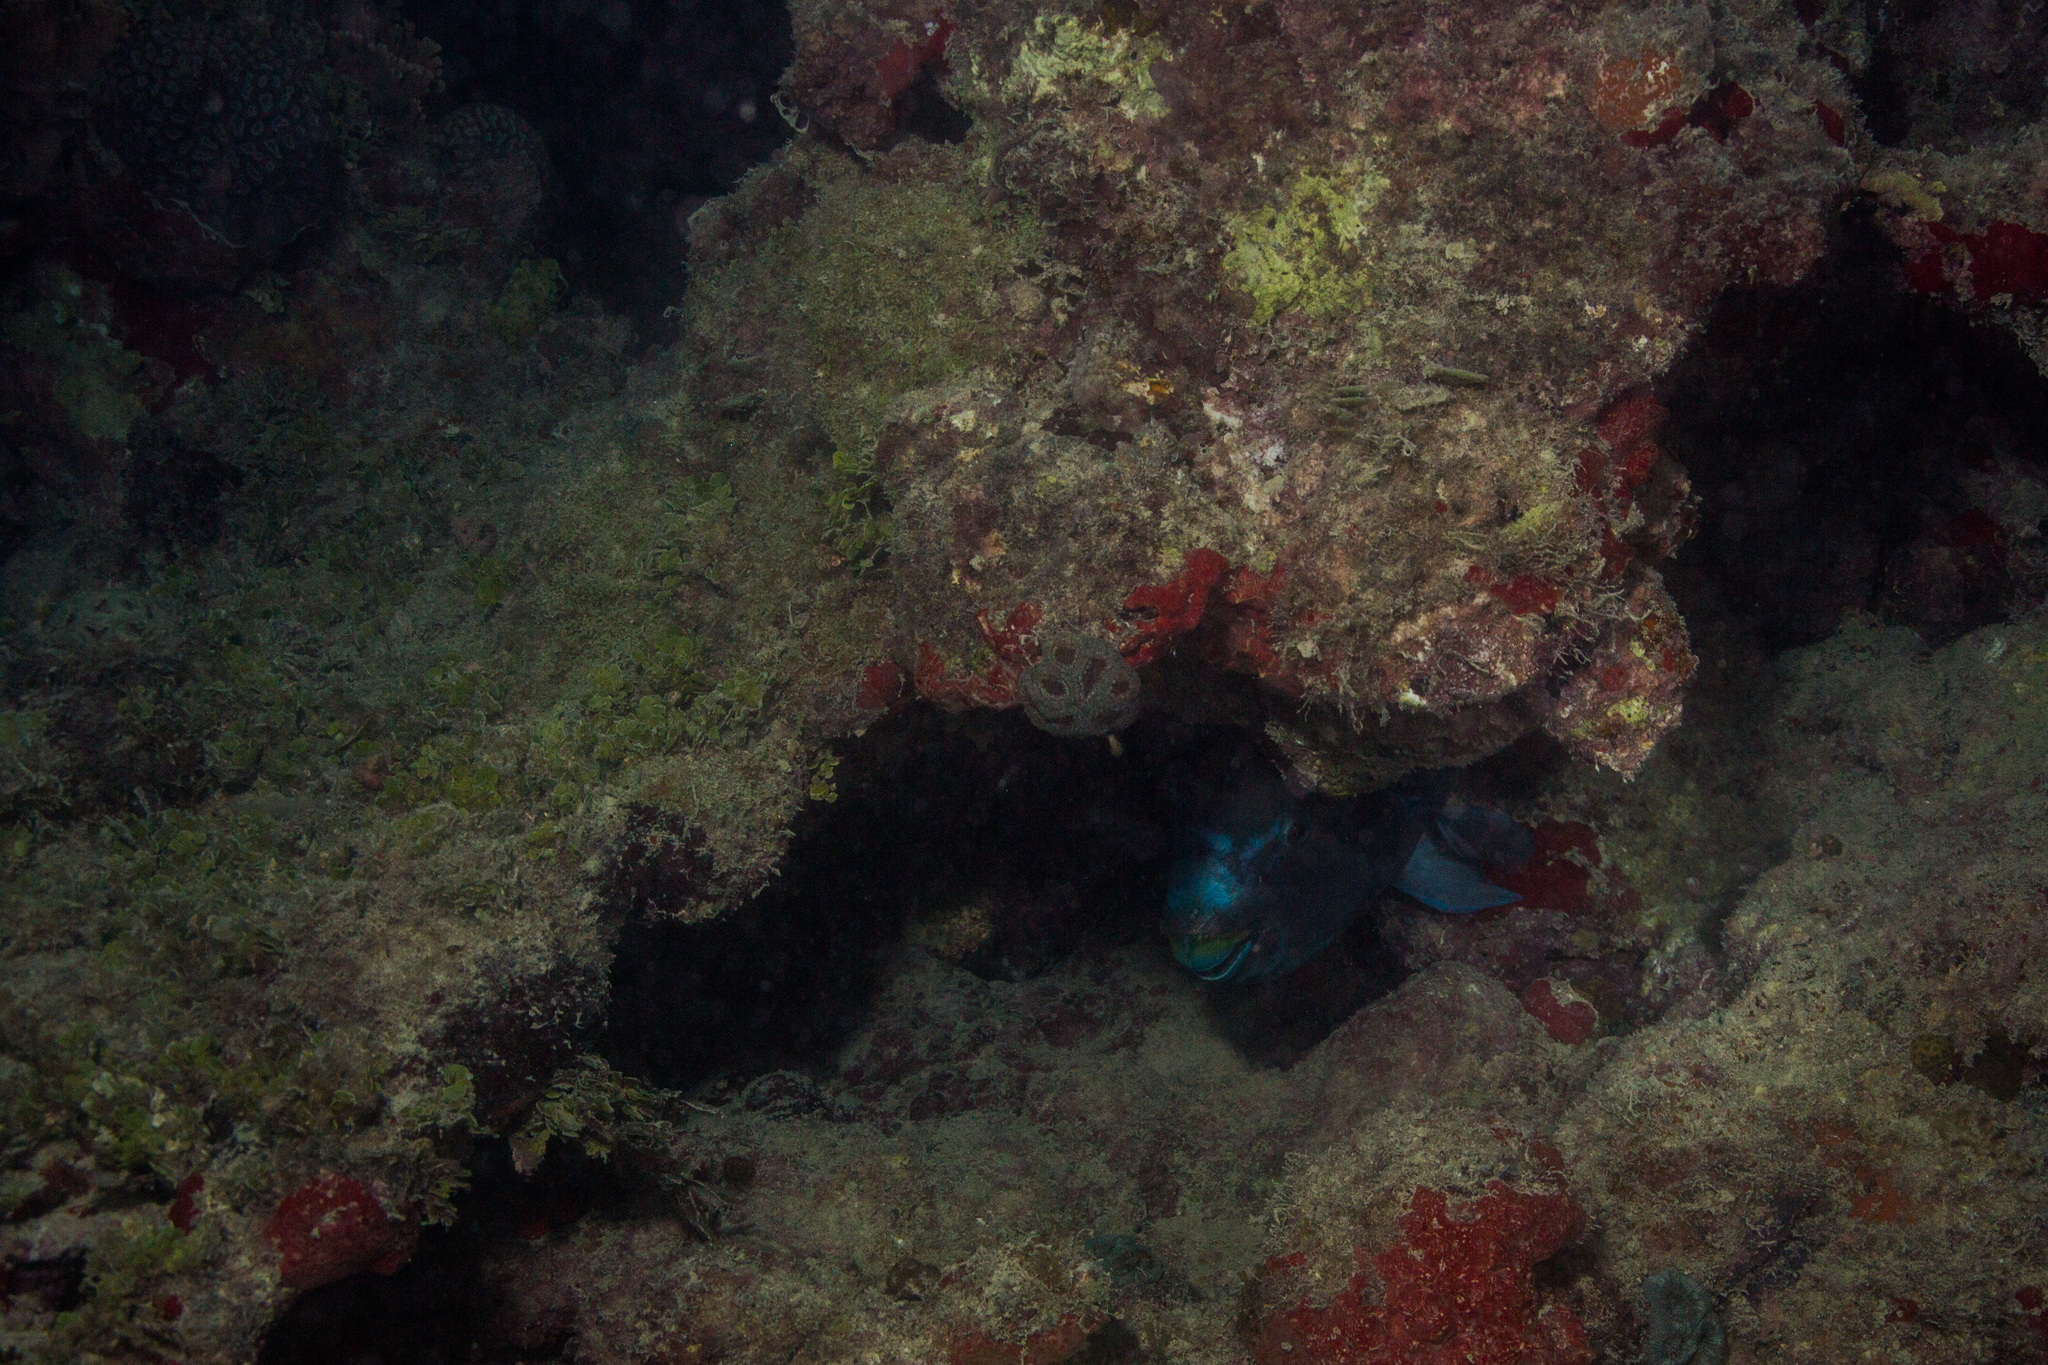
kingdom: Animalia
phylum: Chordata
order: Perciformes
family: Scaridae
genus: Scarus
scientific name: Scarus trispinosus
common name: Greenback parrotfish
